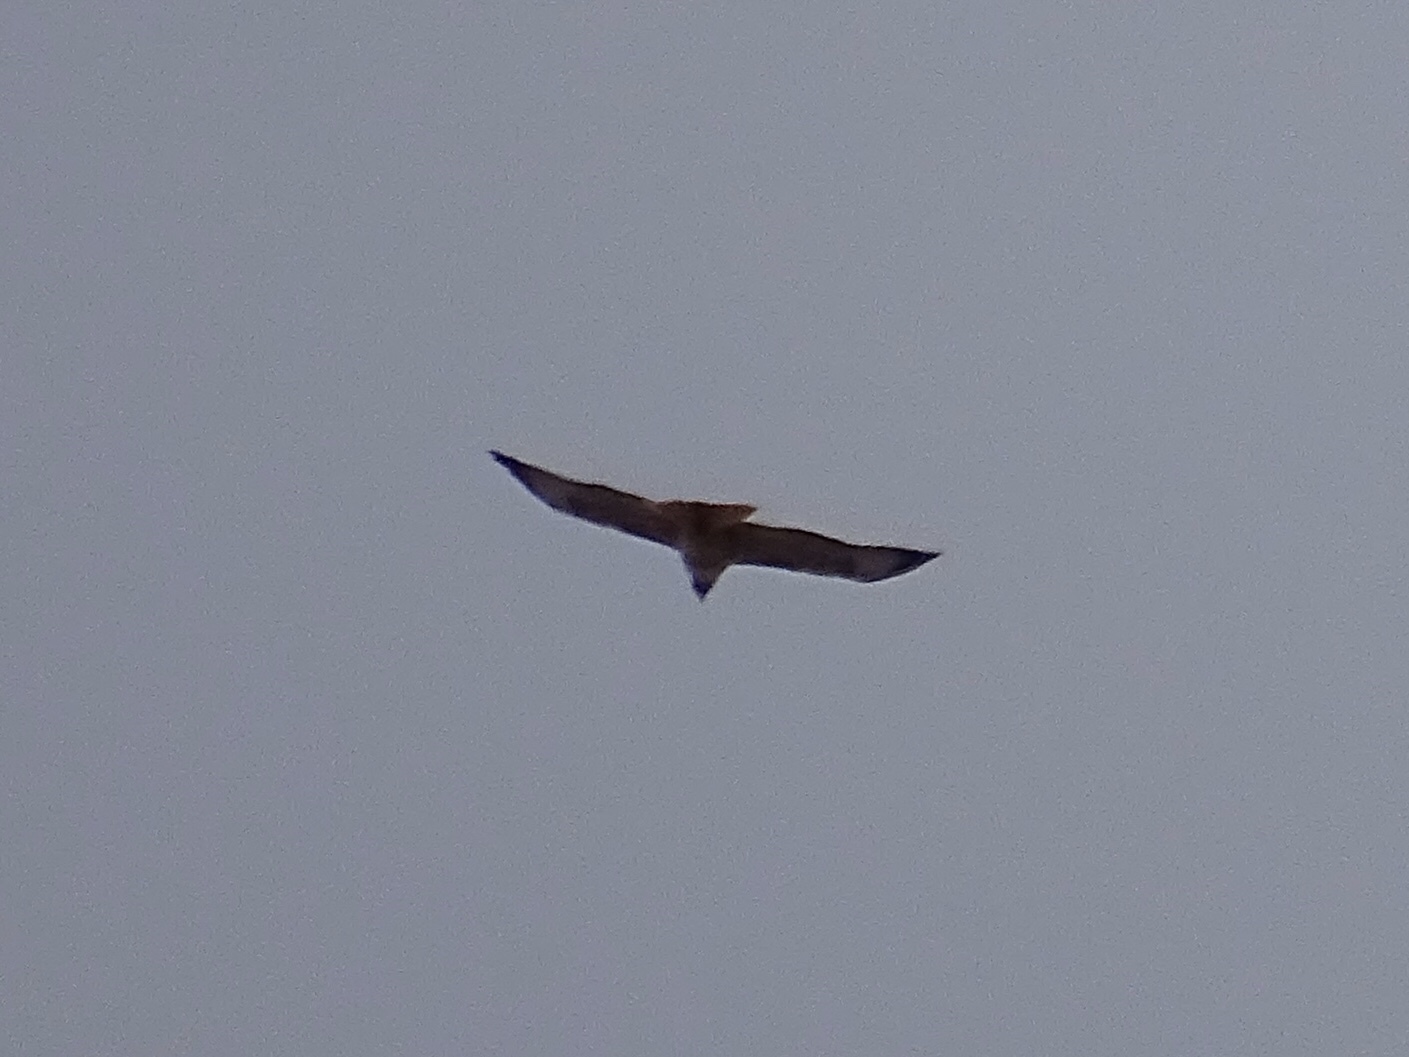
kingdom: Animalia
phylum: Chordata
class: Aves
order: Accipitriformes
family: Accipitridae
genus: Buteo
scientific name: Buteo jamaicensis
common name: Red-tailed hawk
